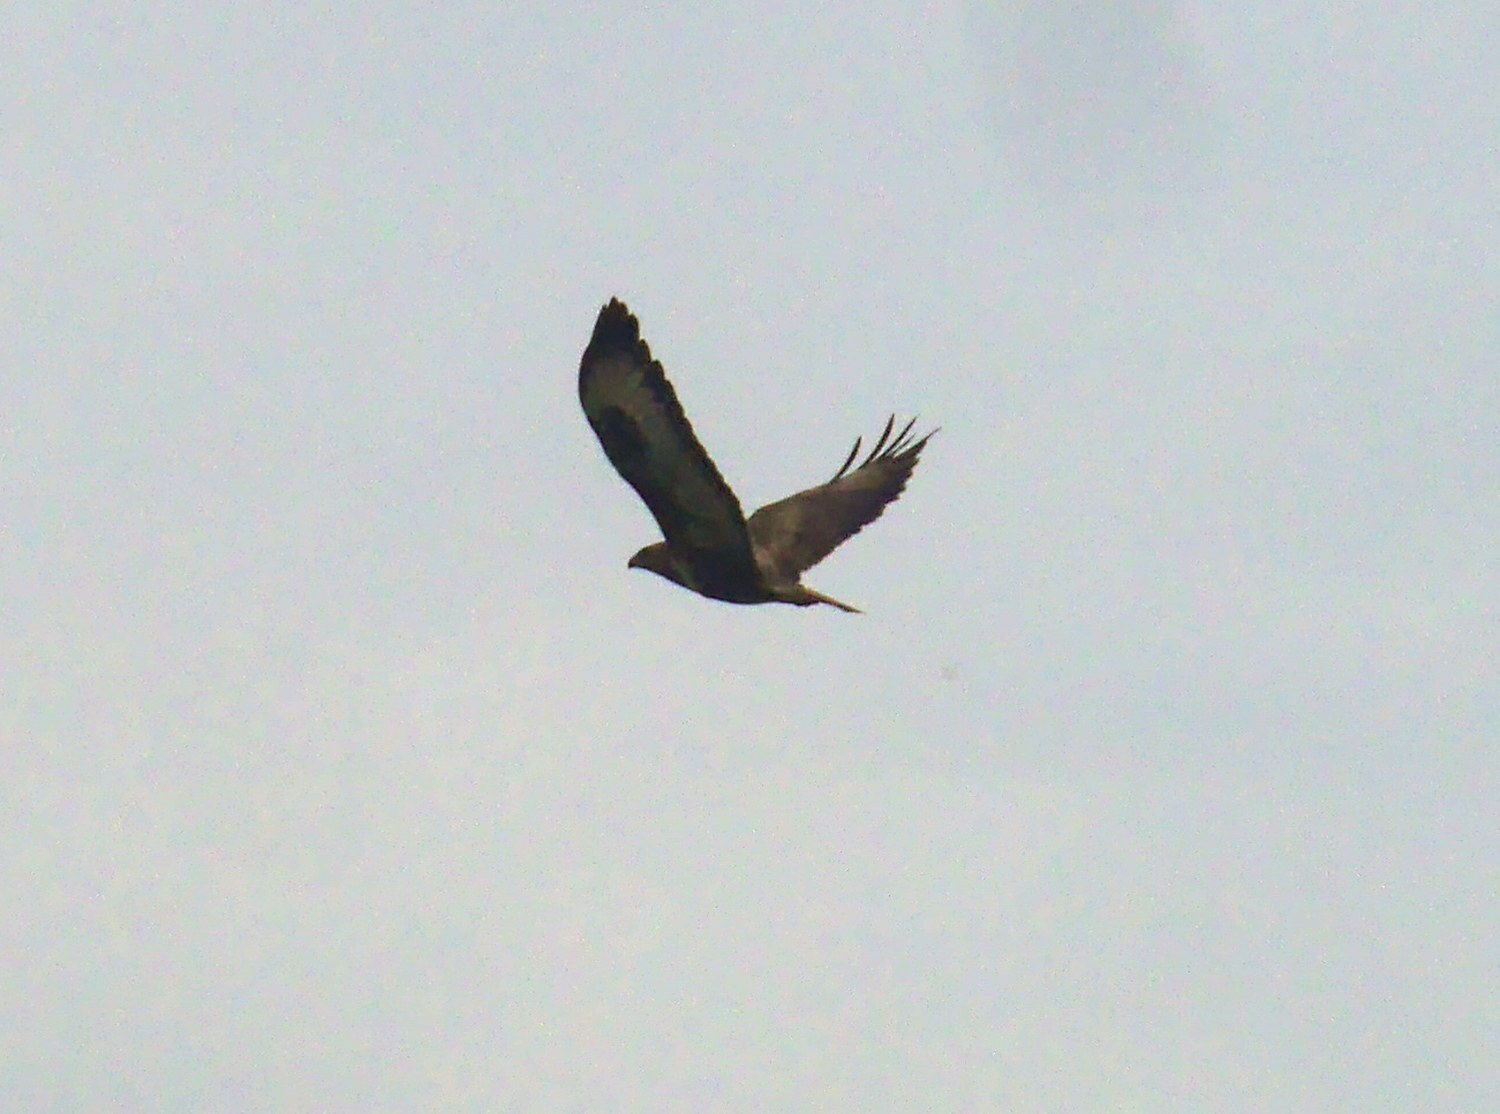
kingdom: Animalia
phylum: Chordata
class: Aves
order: Accipitriformes
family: Accipitridae
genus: Buteo
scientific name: Buteo buteo
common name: Common buzzard
